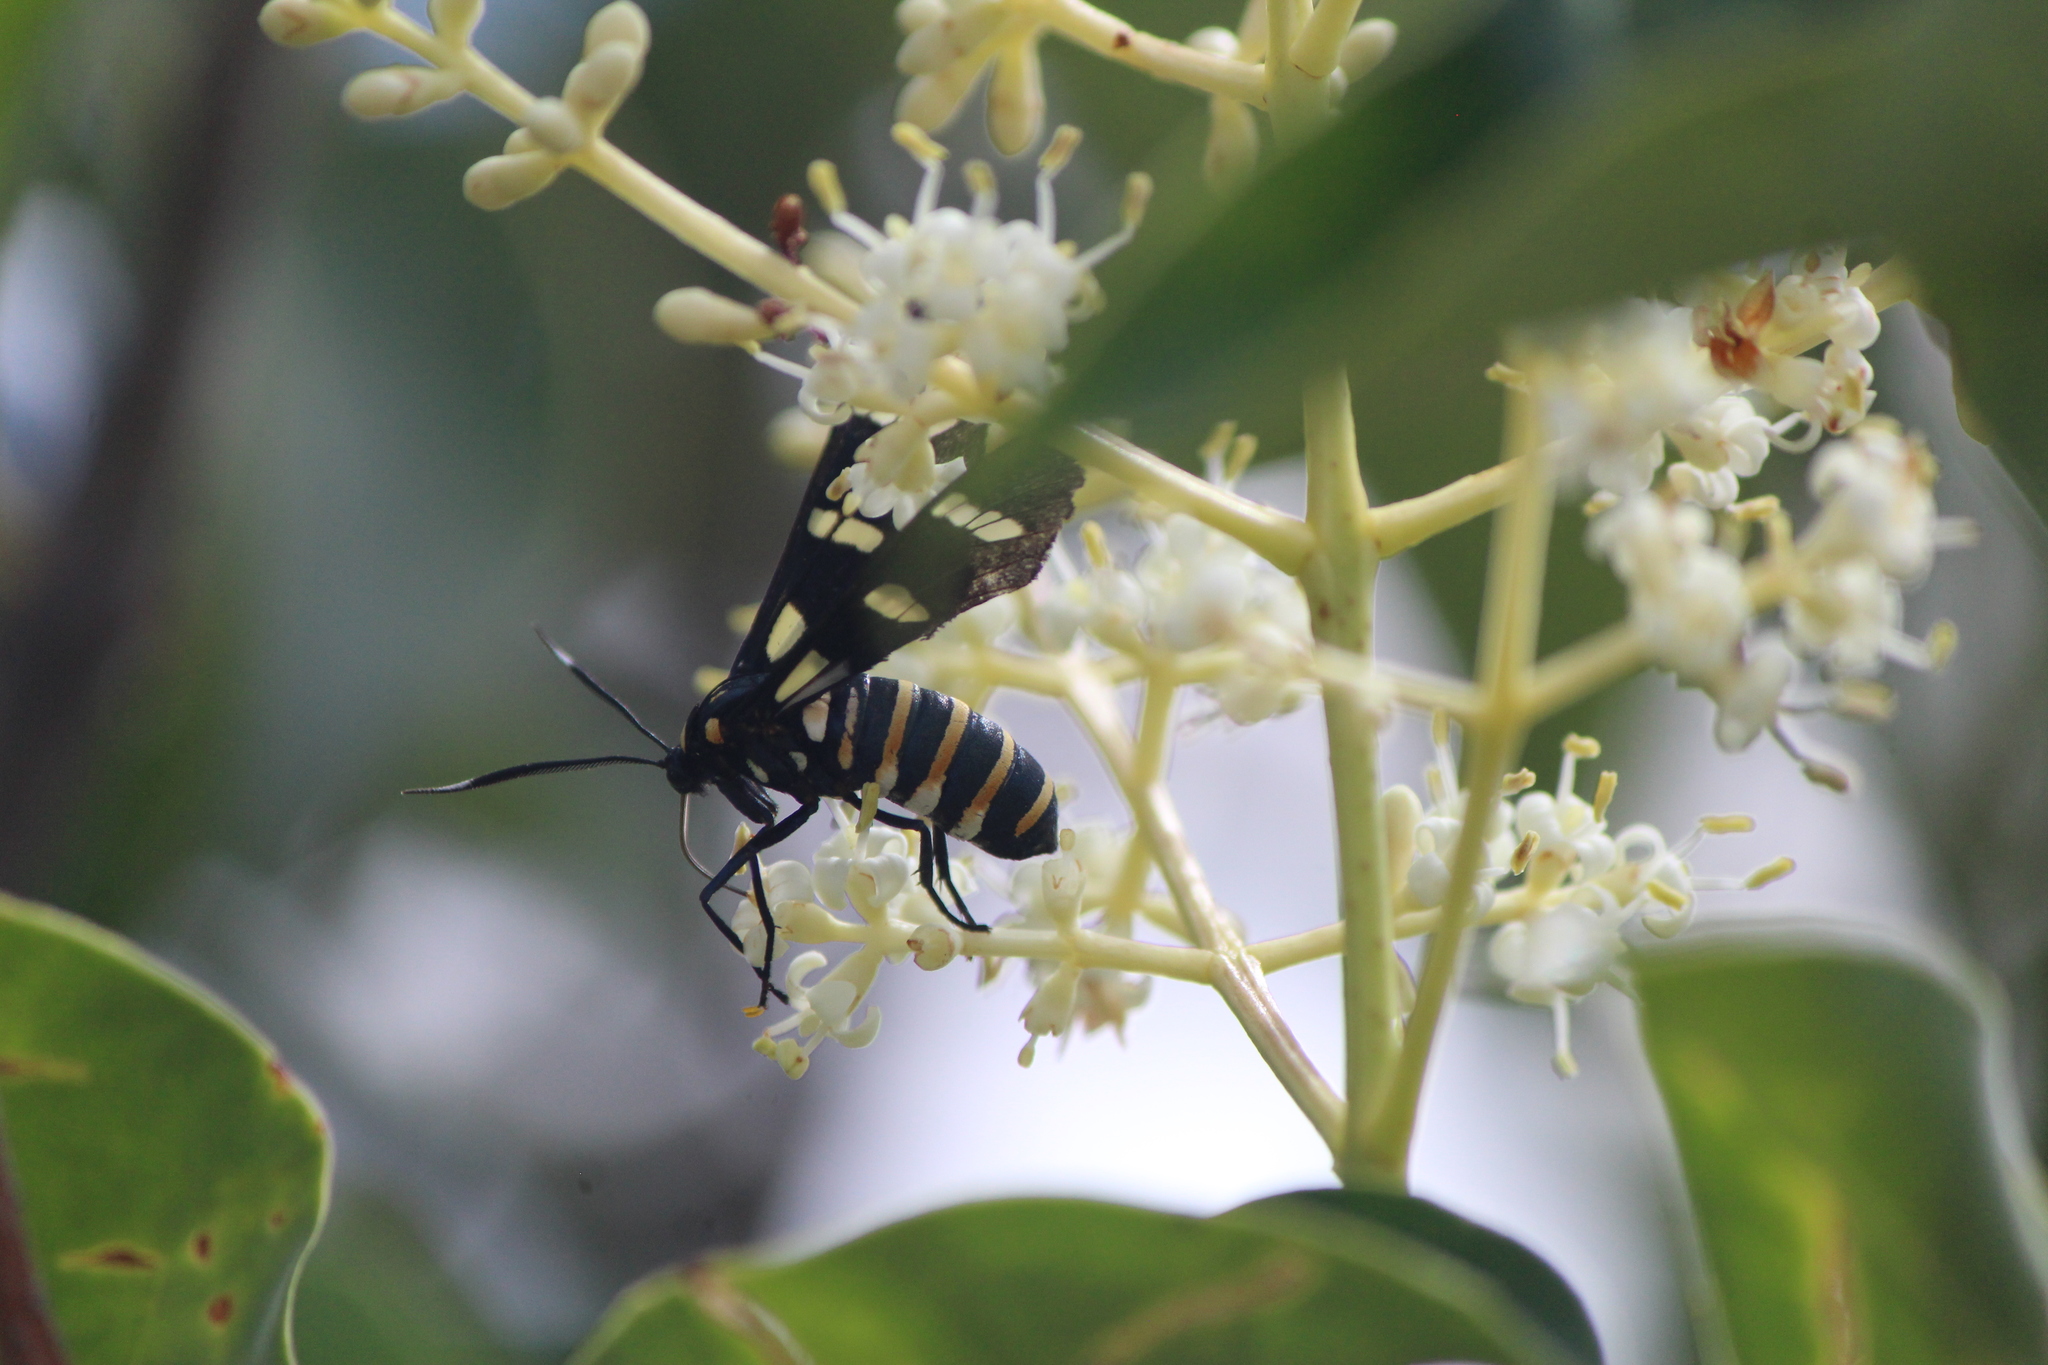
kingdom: Animalia
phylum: Arthropoda
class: Insecta
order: Lepidoptera
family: Erebidae
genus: Syntomeida
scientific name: Syntomeida melanthus
